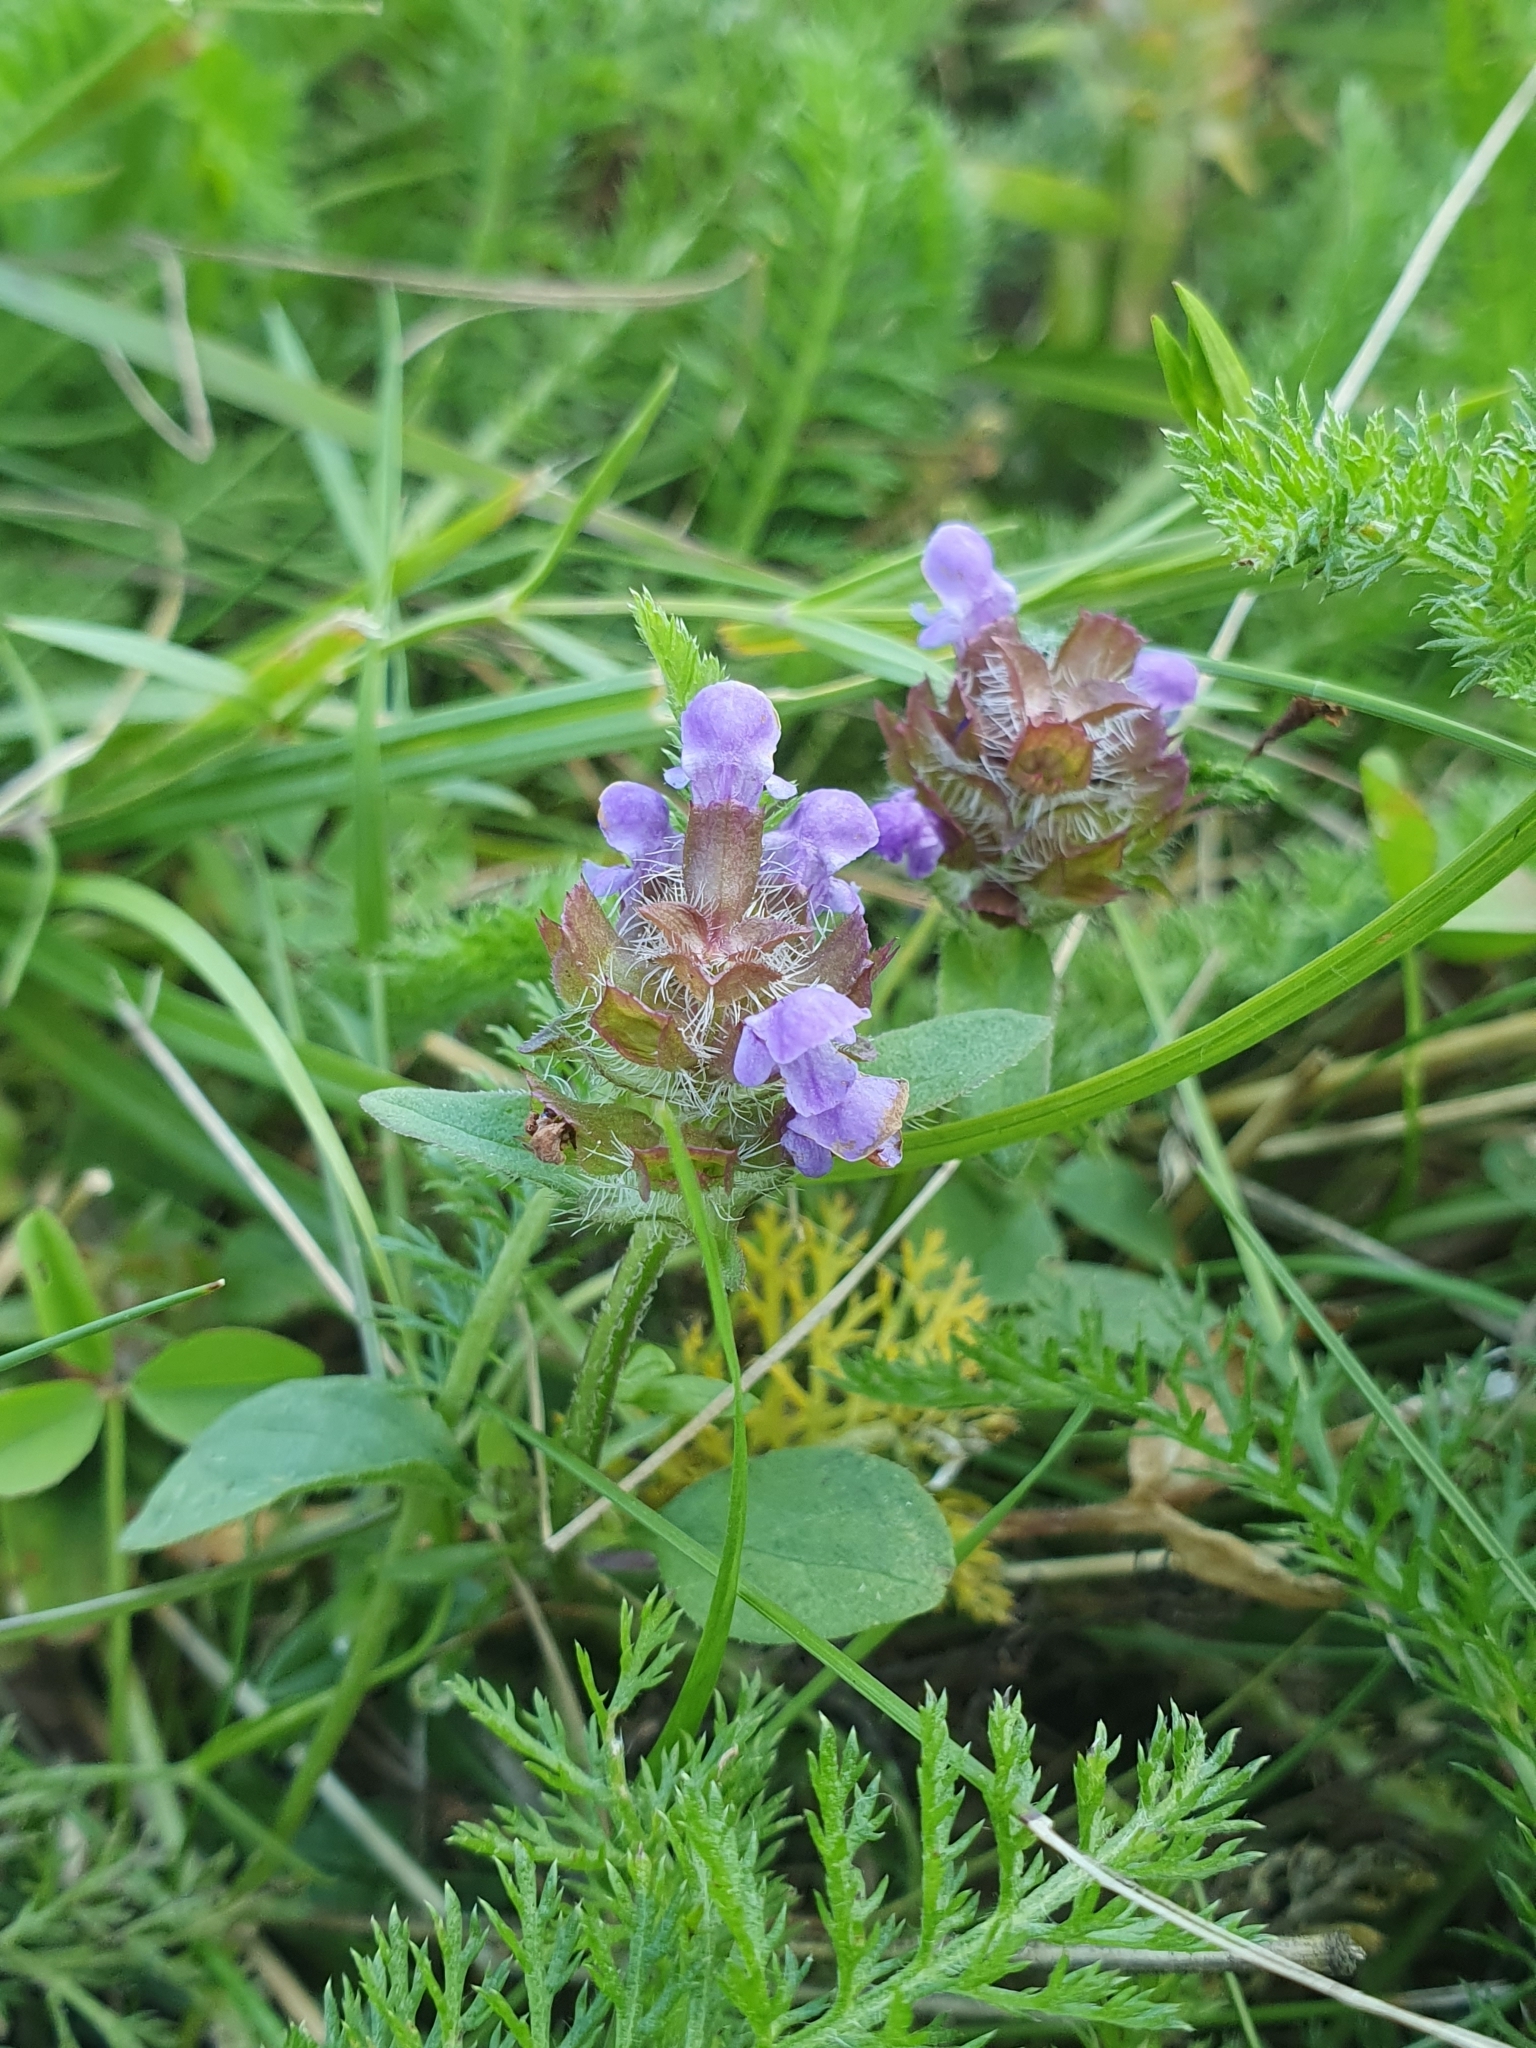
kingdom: Plantae
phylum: Tracheophyta
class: Magnoliopsida
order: Lamiales
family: Lamiaceae
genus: Prunella
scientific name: Prunella vulgaris
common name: Heal-all
